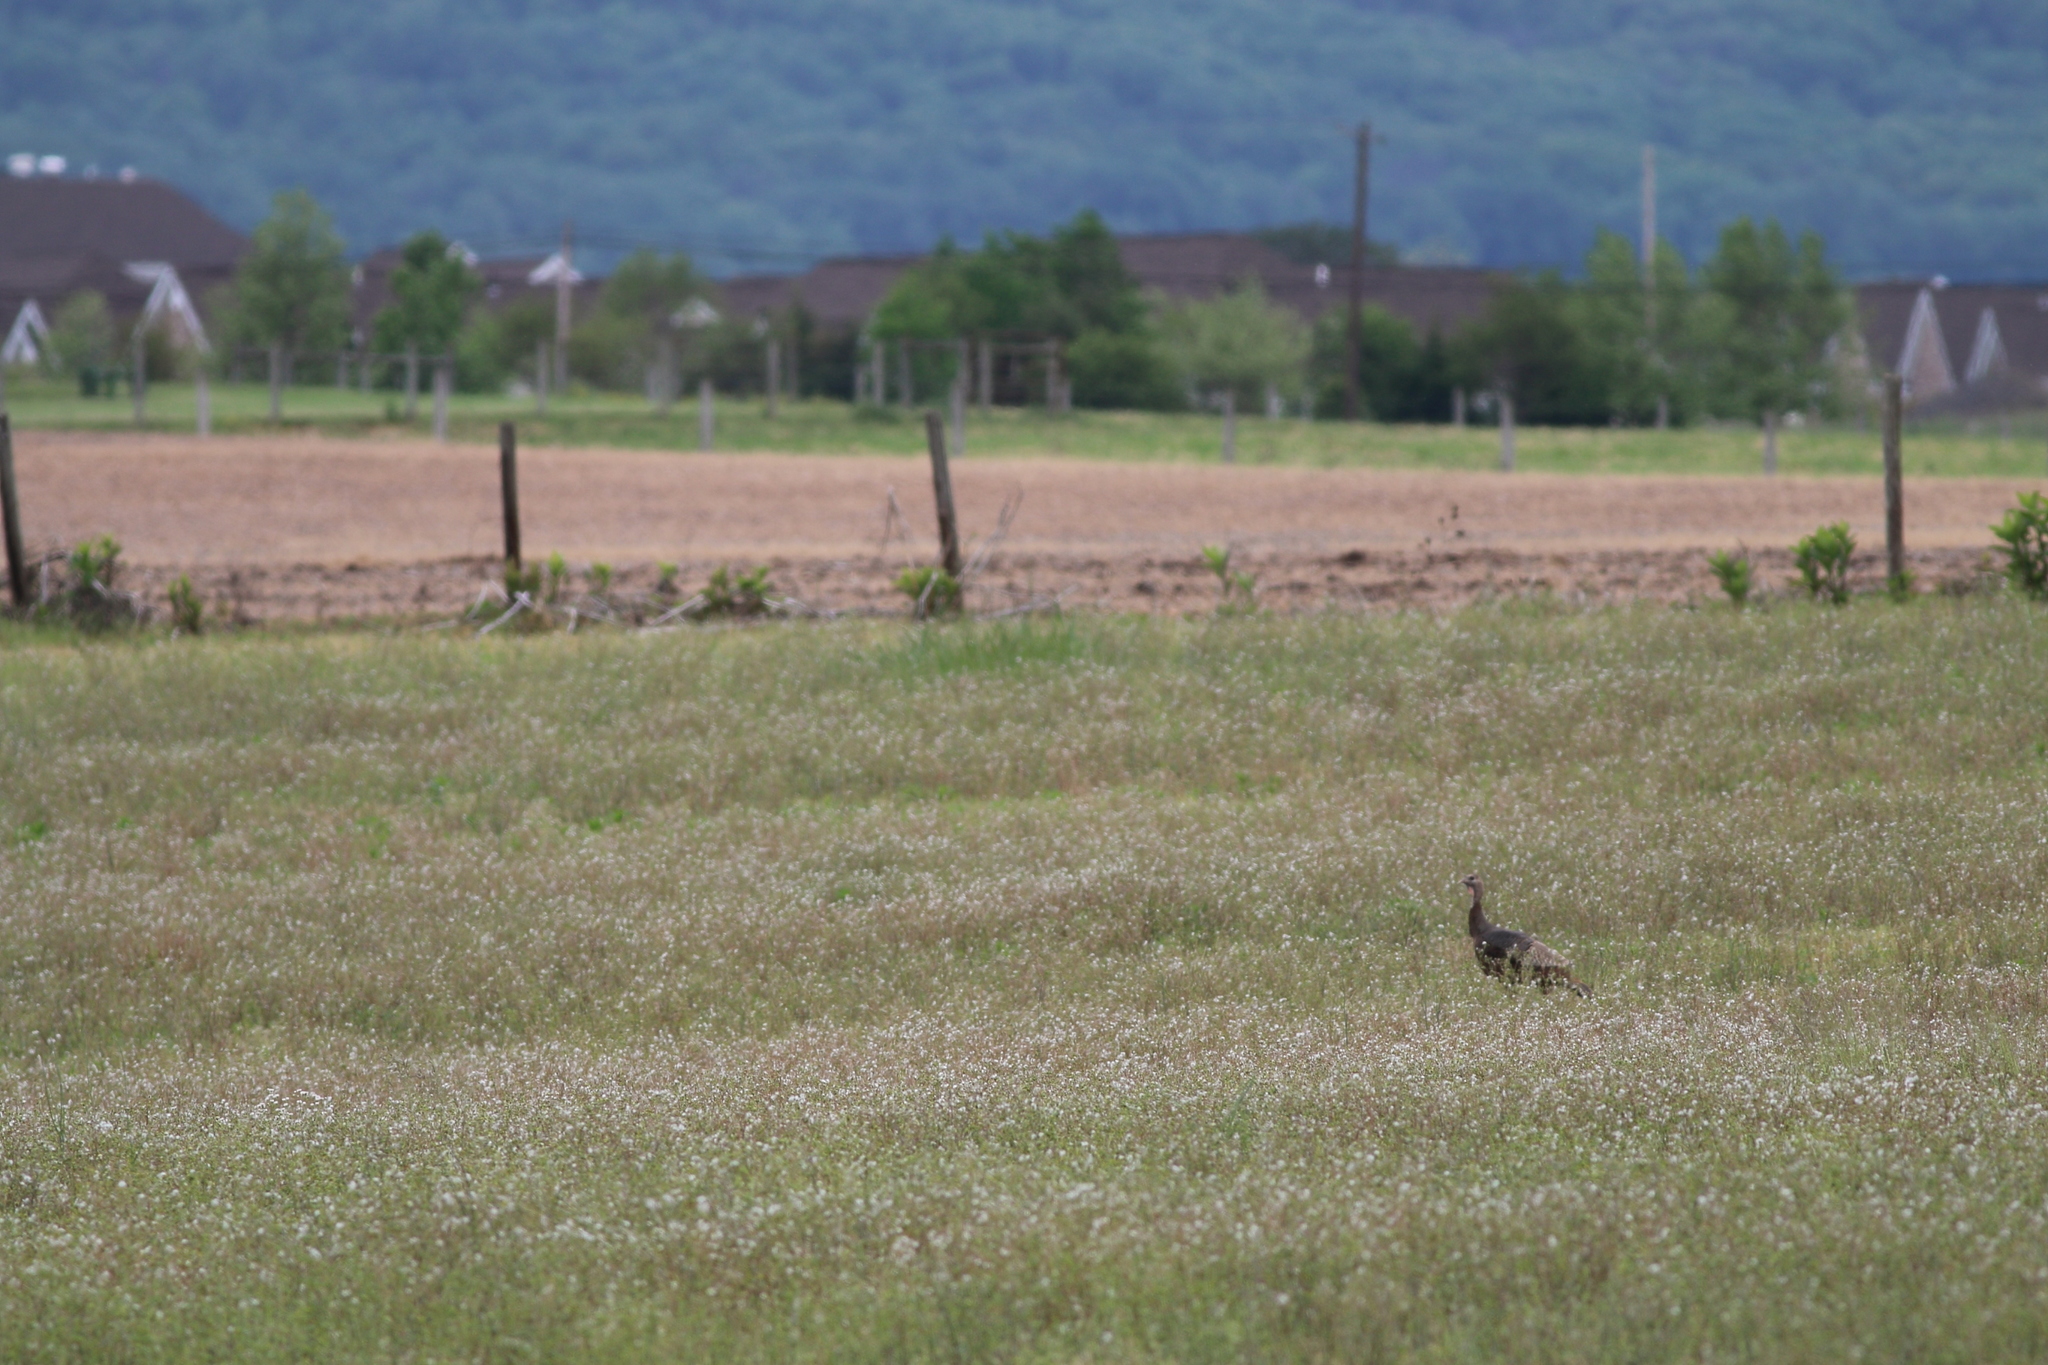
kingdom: Animalia
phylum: Chordata
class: Aves
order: Galliformes
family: Phasianidae
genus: Meleagris
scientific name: Meleagris gallopavo
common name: Wild turkey
